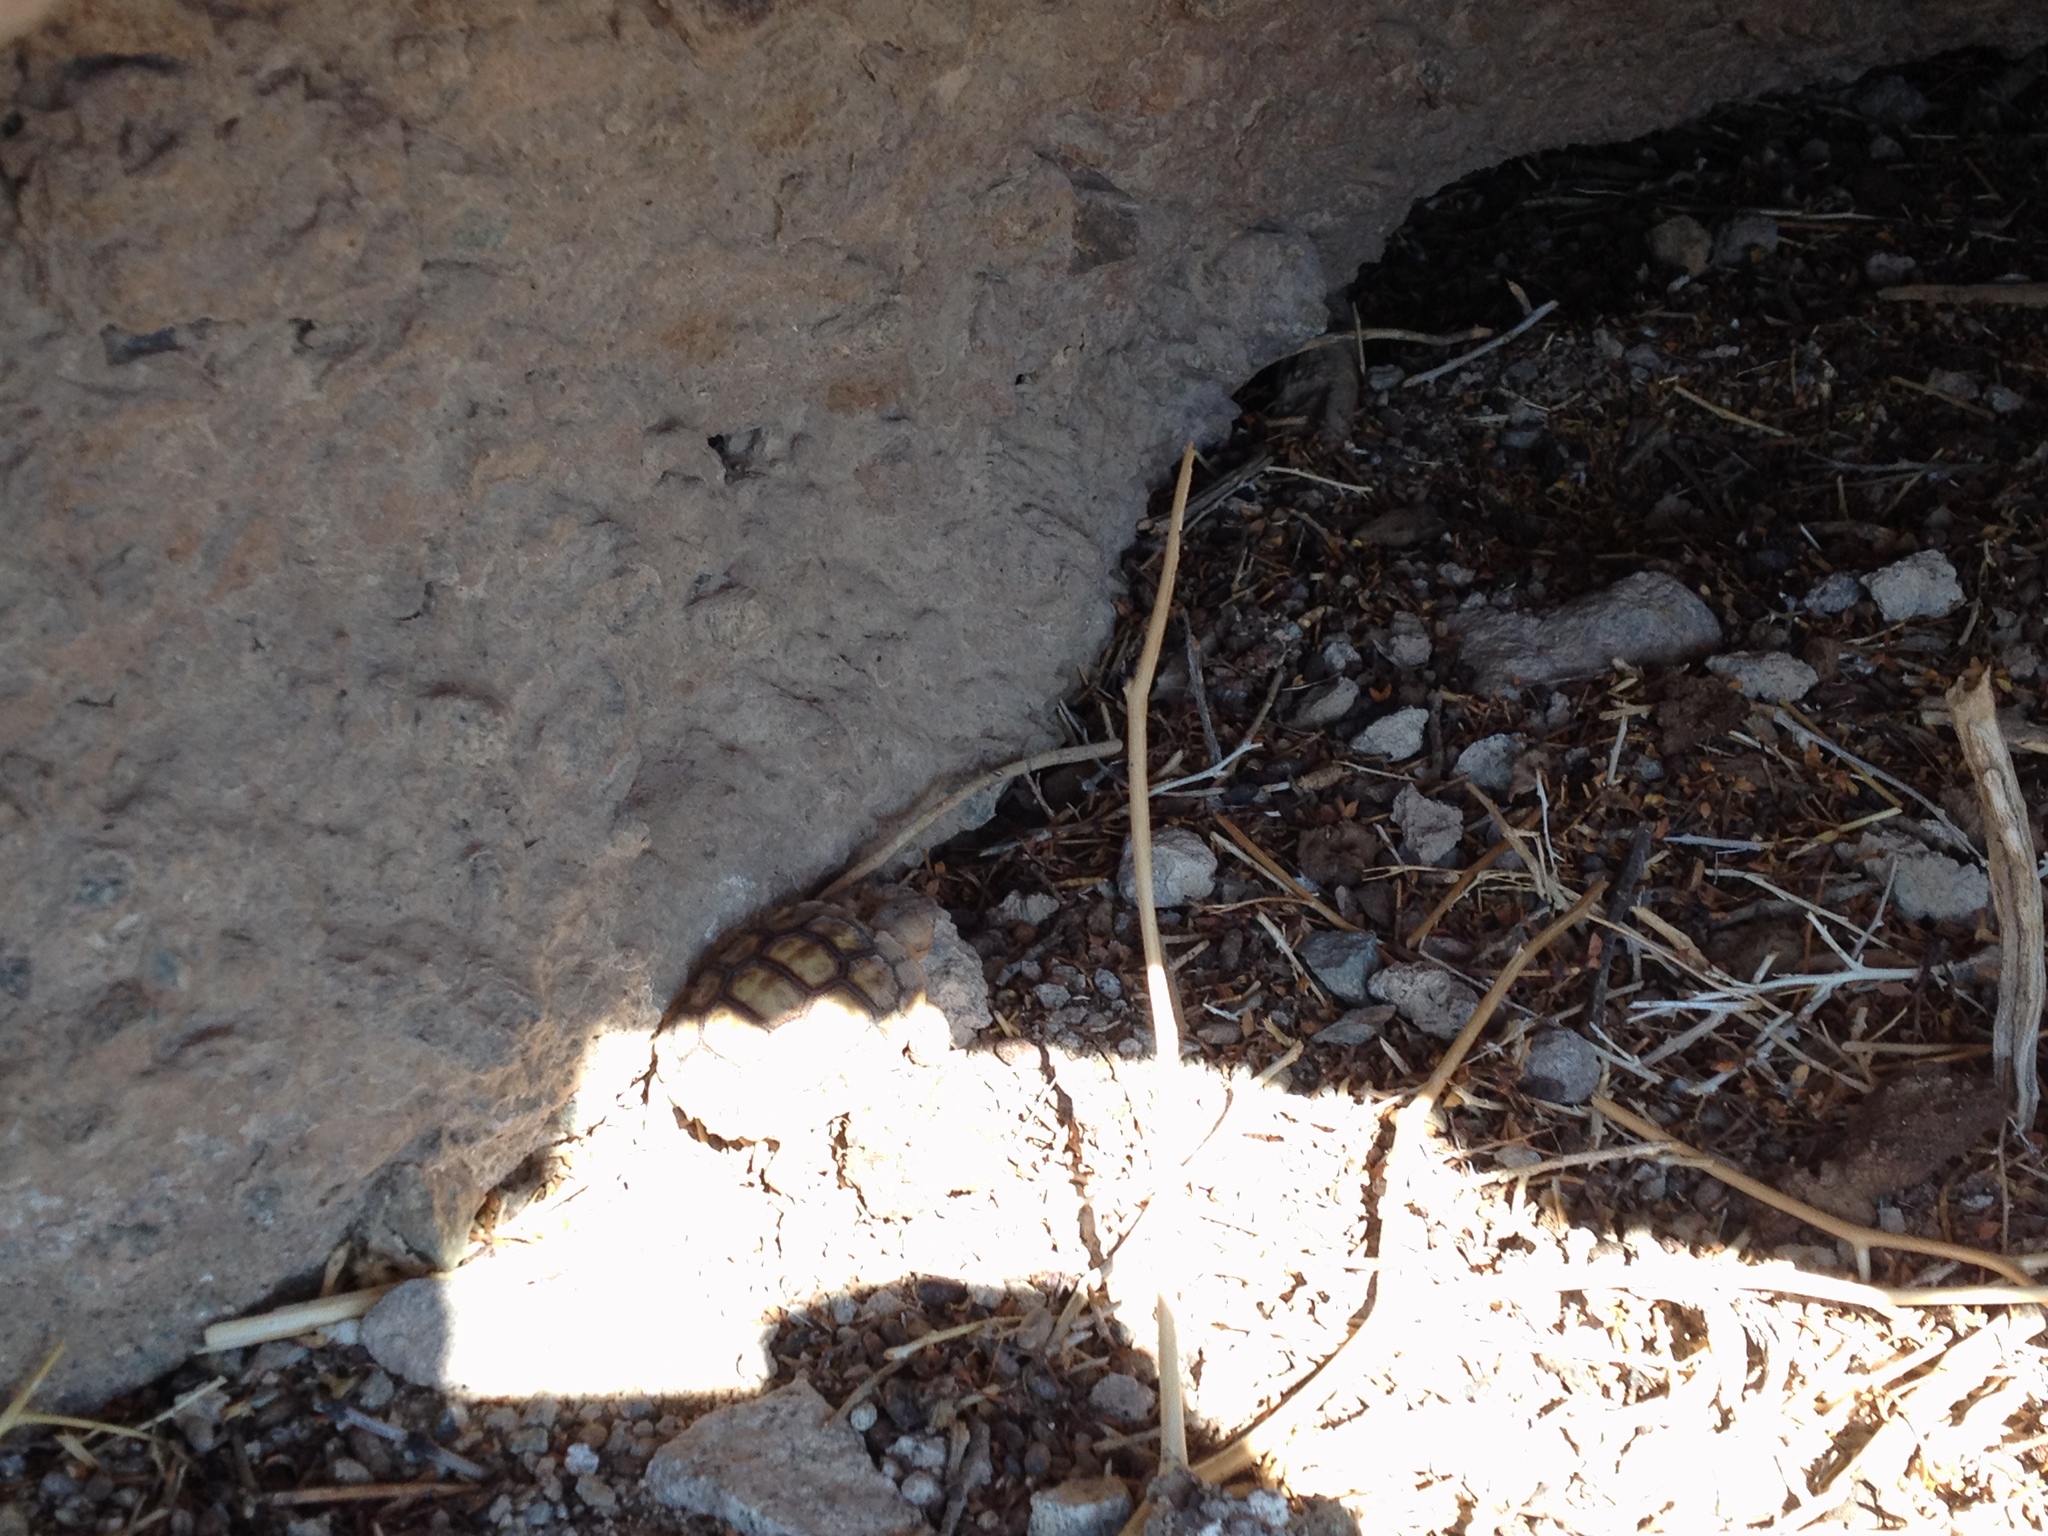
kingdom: Animalia
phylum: Chordata
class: Testudines
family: Testudinidae
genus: Gopherus
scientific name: Gopherus agassizii
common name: Mojave desert tortoise
